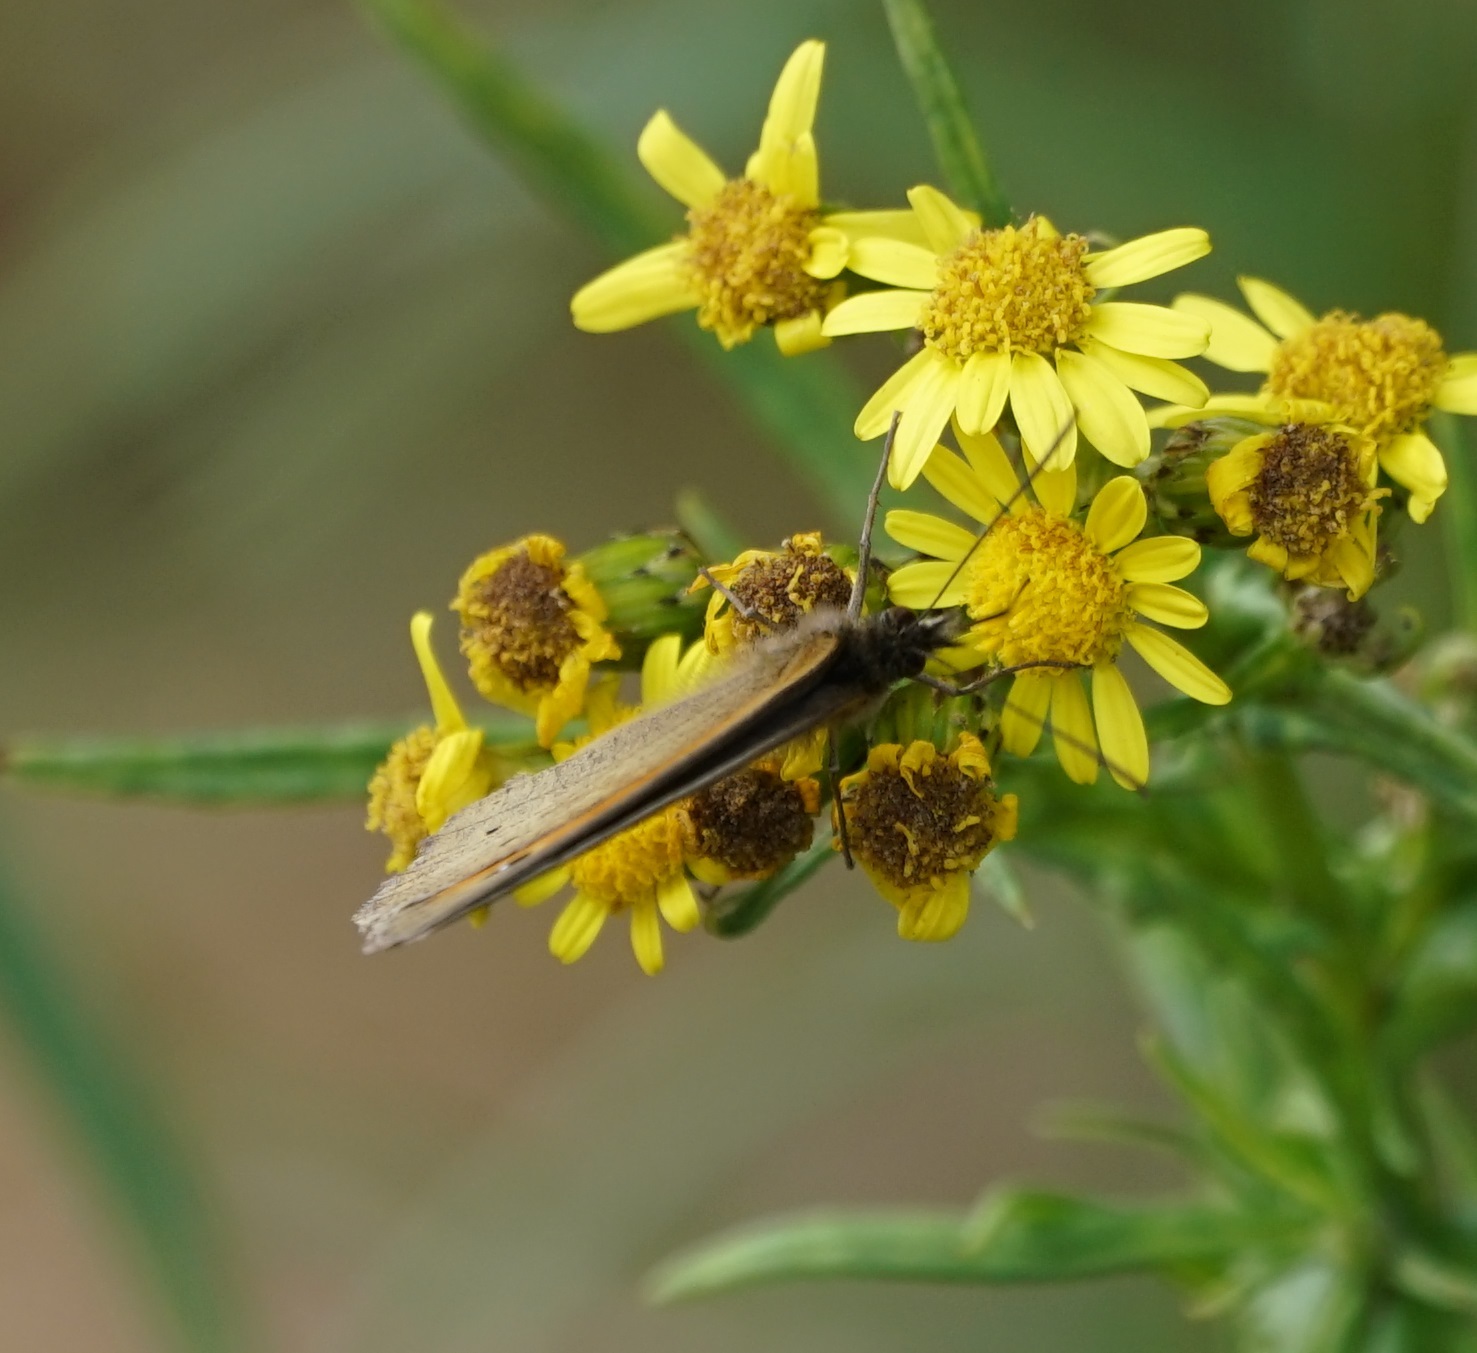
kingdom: Animalia
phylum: Arthropoda
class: Insecta
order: Lepidoptera
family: Nymphalidae
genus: Maniola
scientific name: Maniola jurtina
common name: Meadow brown
